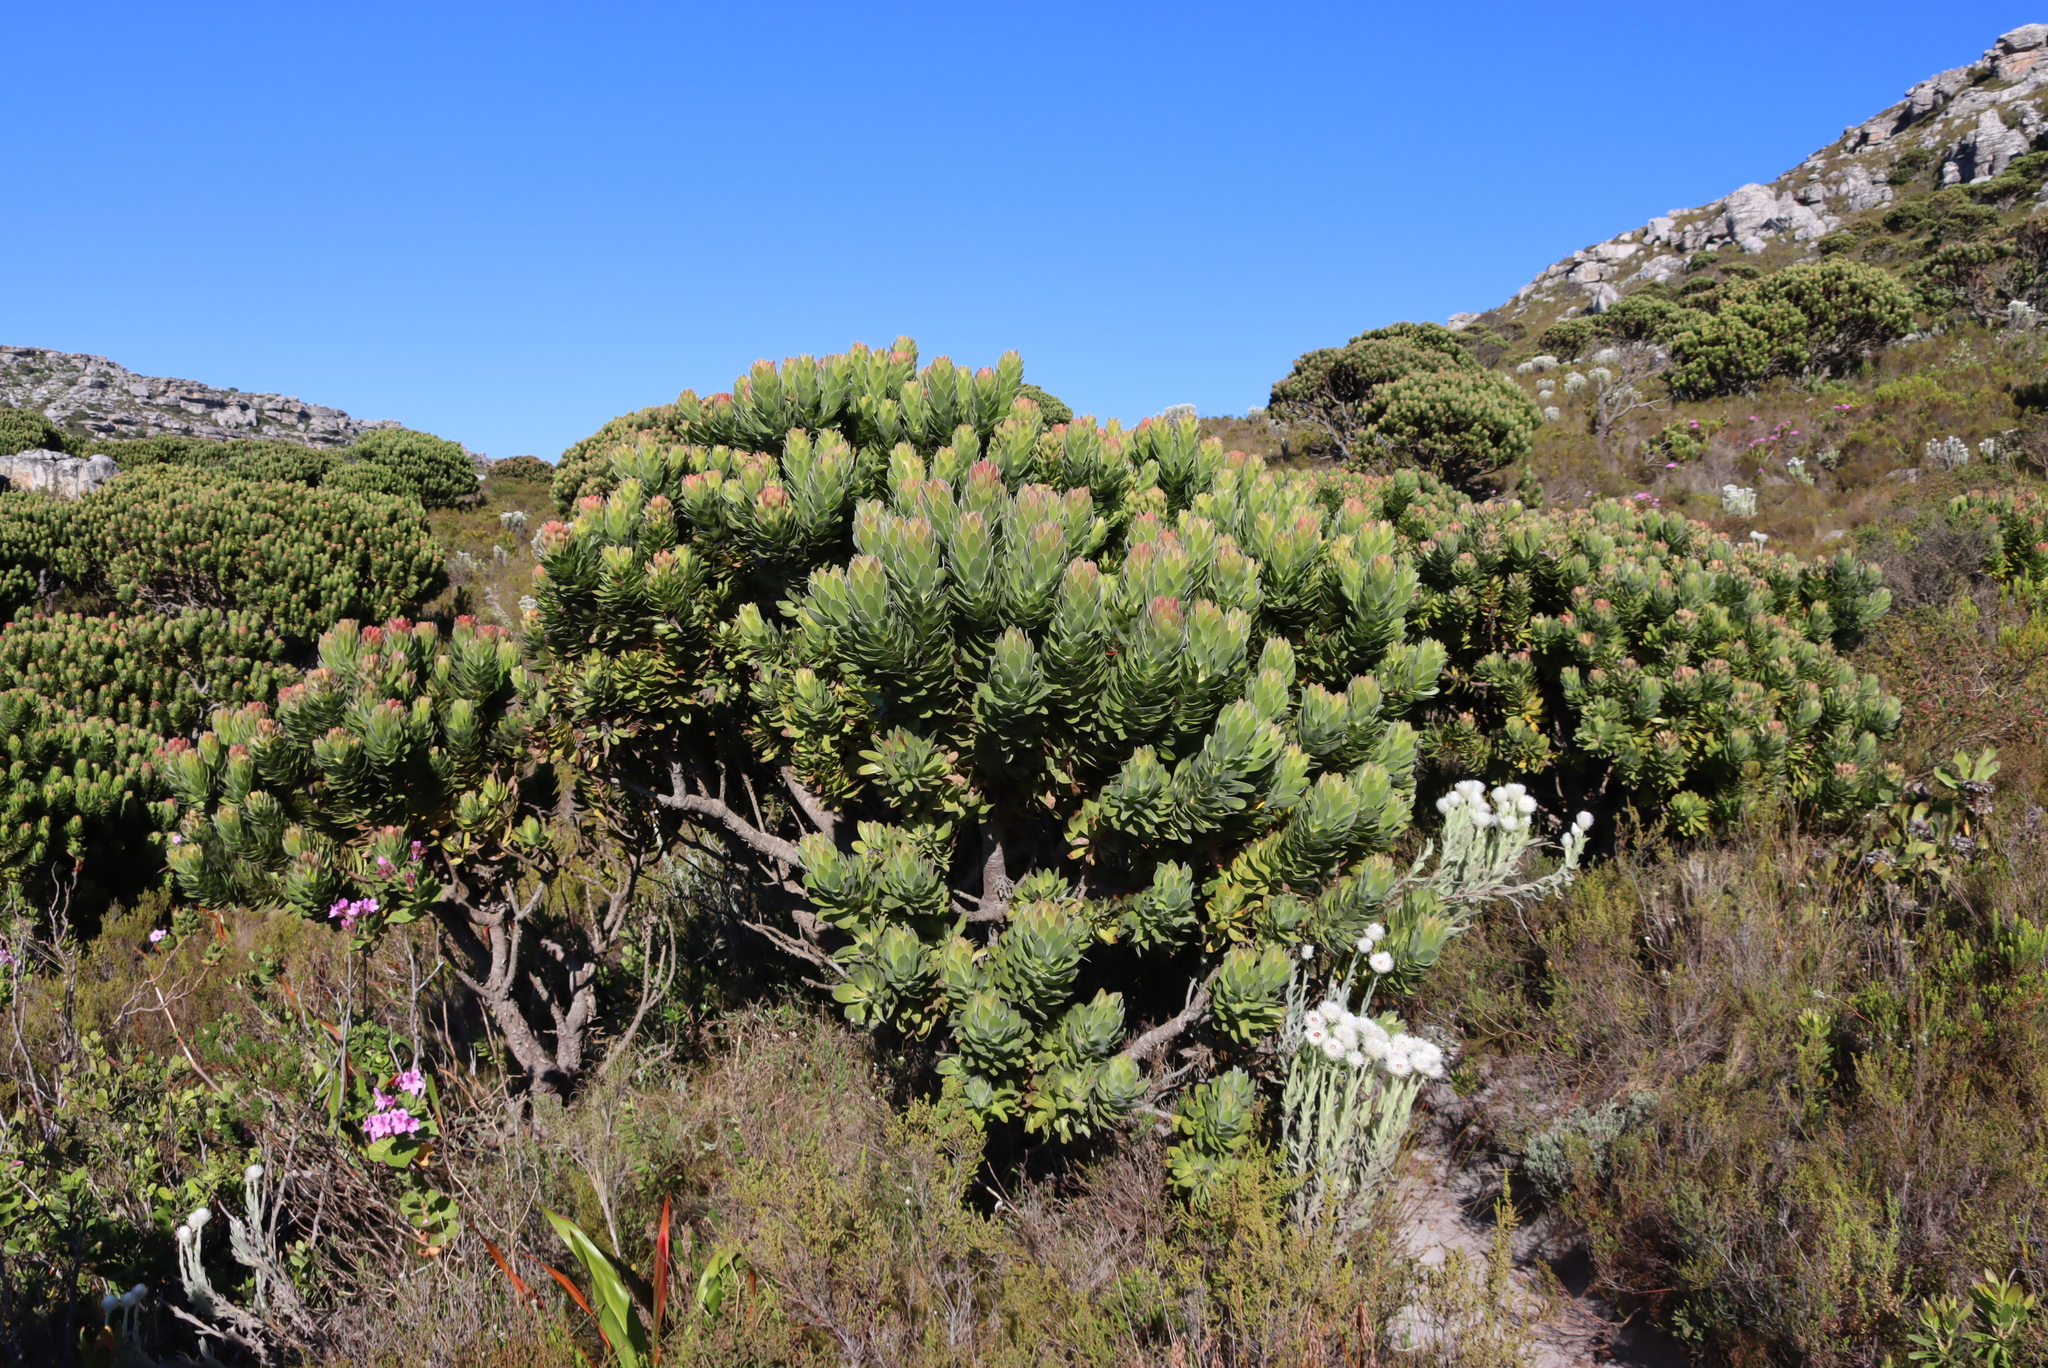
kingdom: Plantae
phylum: Tracheophyta
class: Magnoliopsida
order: Proteales
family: Proteaceae
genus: Mimetes
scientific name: Mimetes fimbriifolius
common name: Fringed bottlebrush
